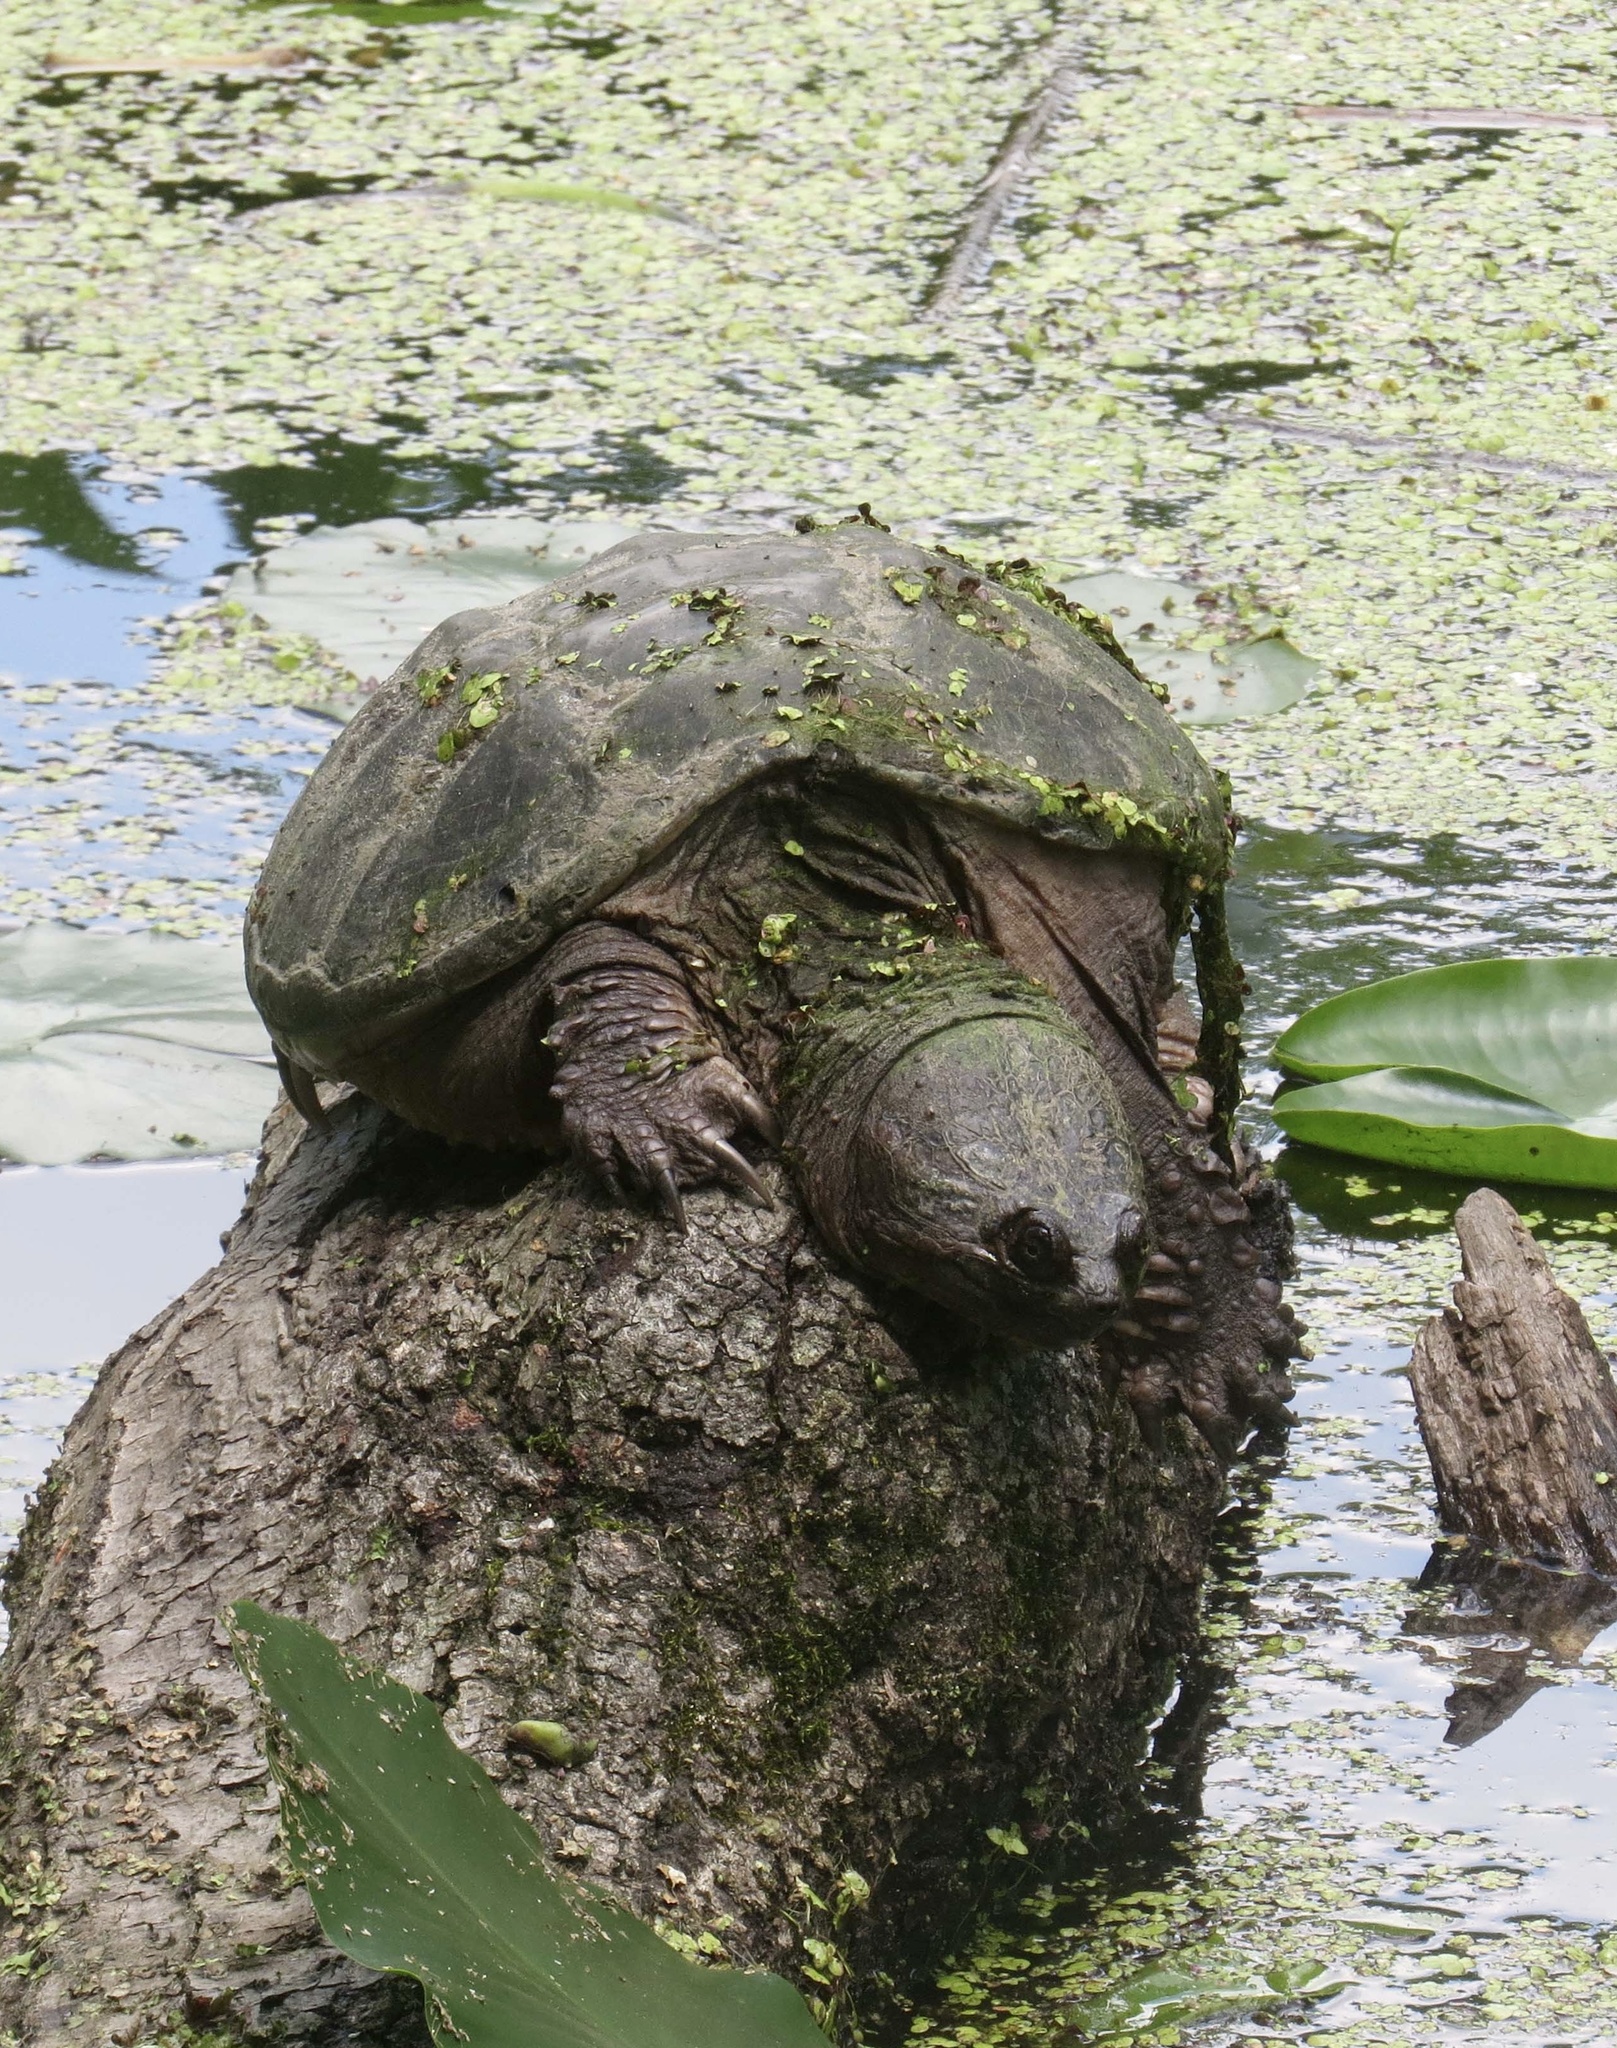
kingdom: Animalia
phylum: Chordata
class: Testudines
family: Chelydridae
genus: Chelydra
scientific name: Chelydra serpentina
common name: Common snapping turtle
